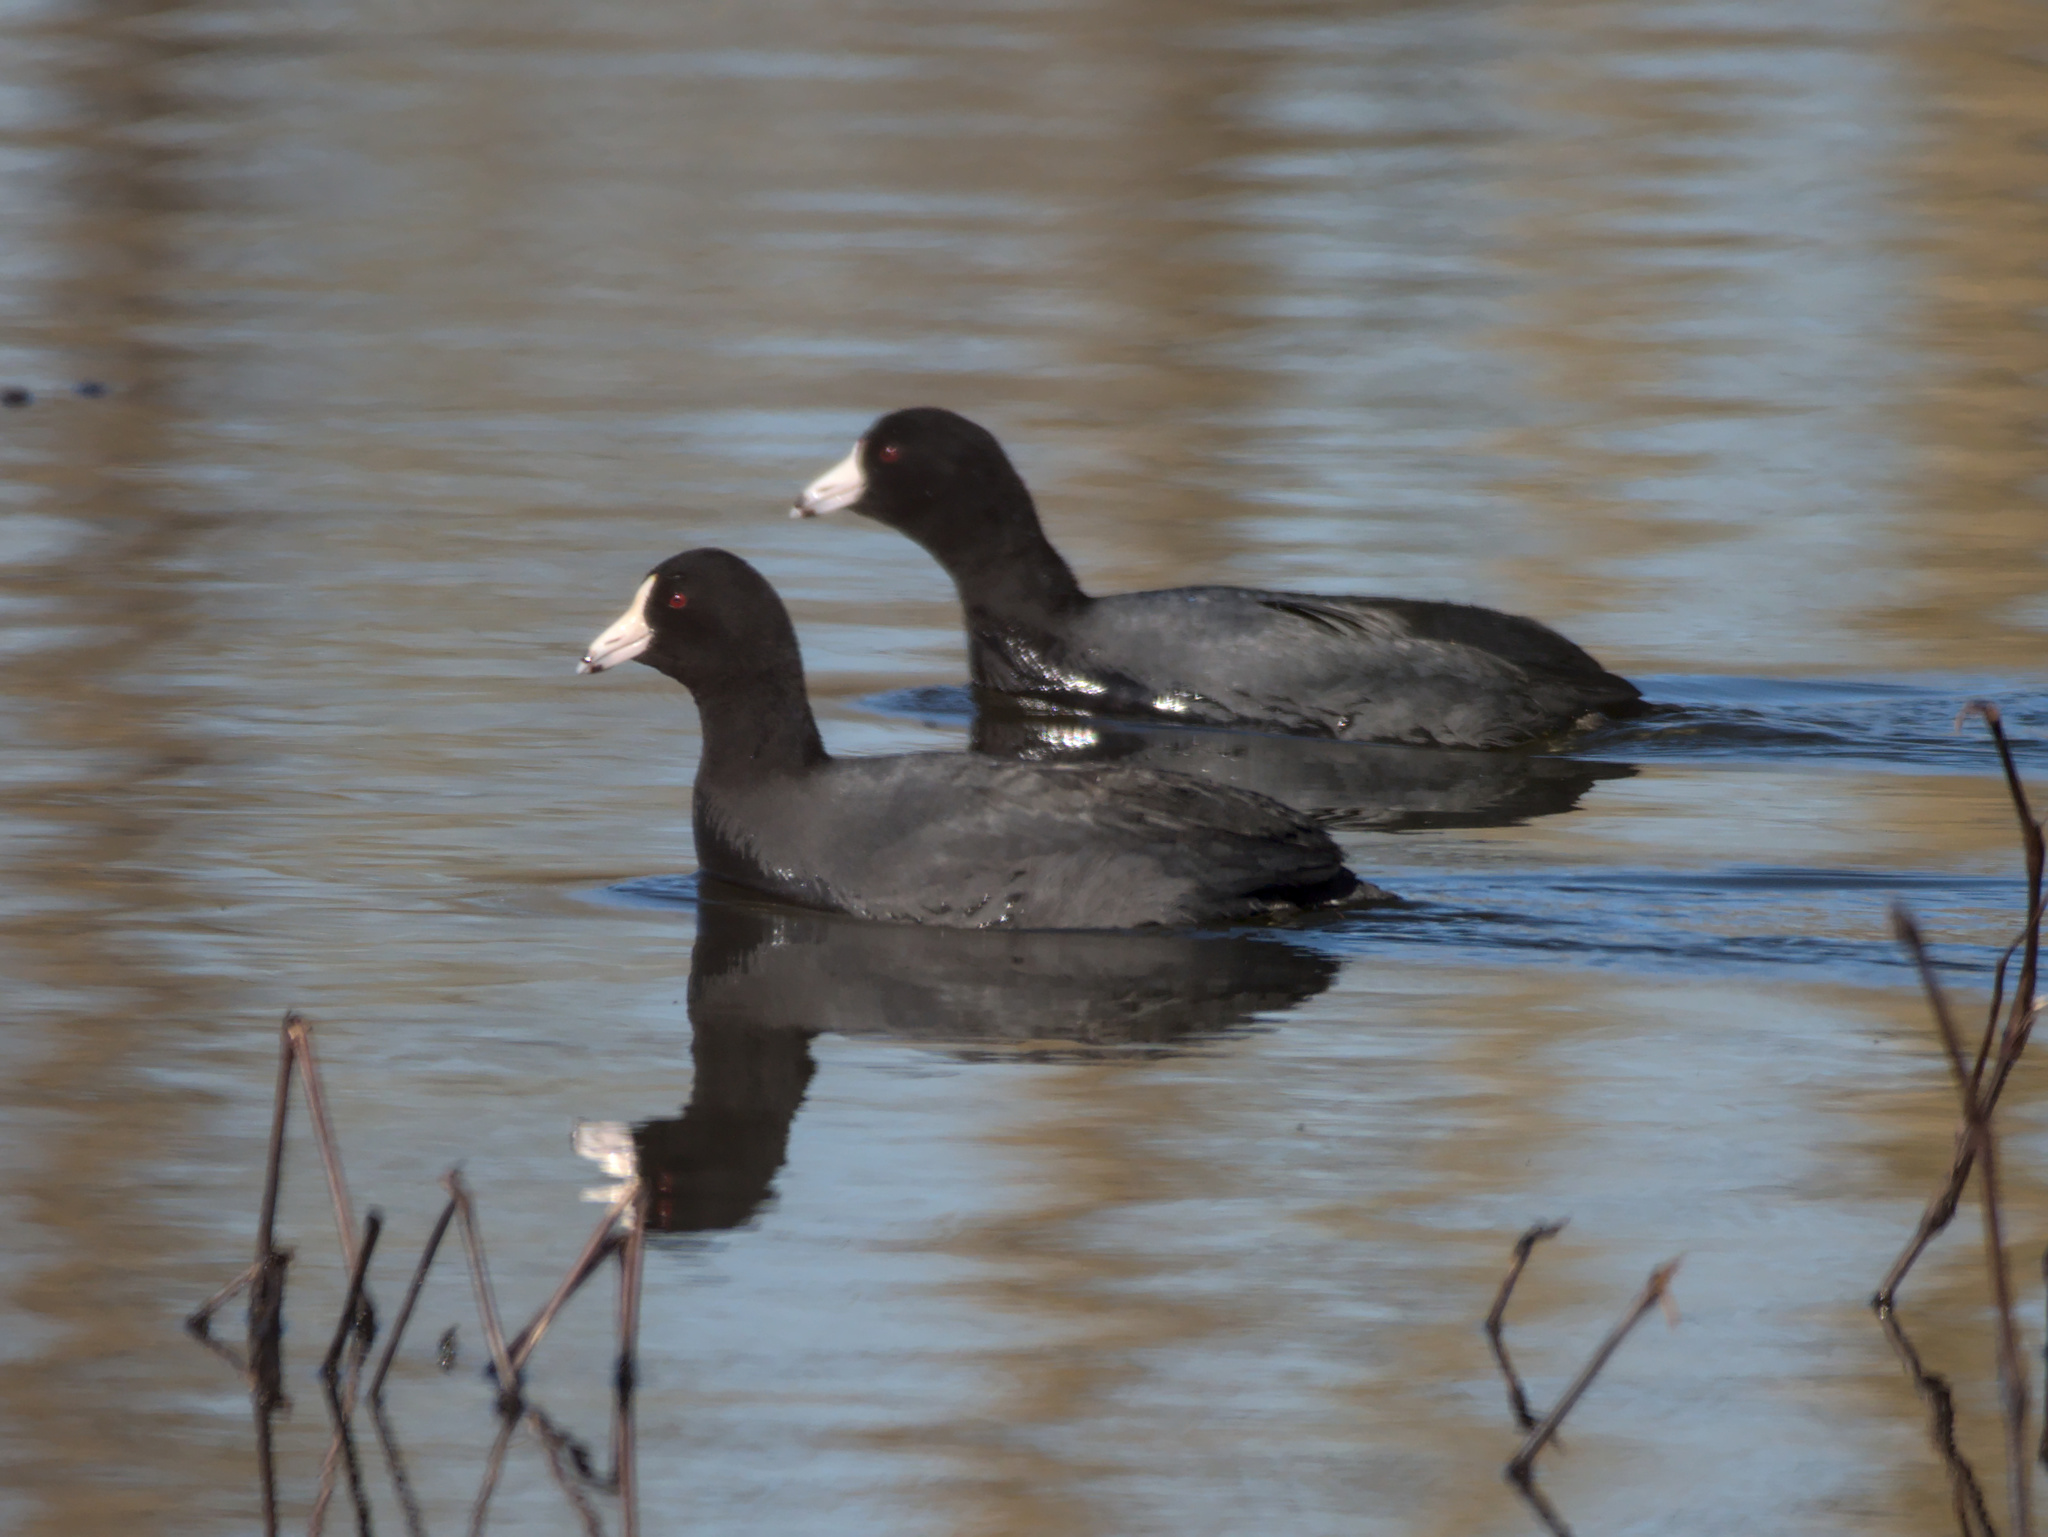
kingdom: Animalia
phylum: Chordata
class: Aves
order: Gruiformes
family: Rallidae
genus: Fulica
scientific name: Fulica americana
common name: American coot
